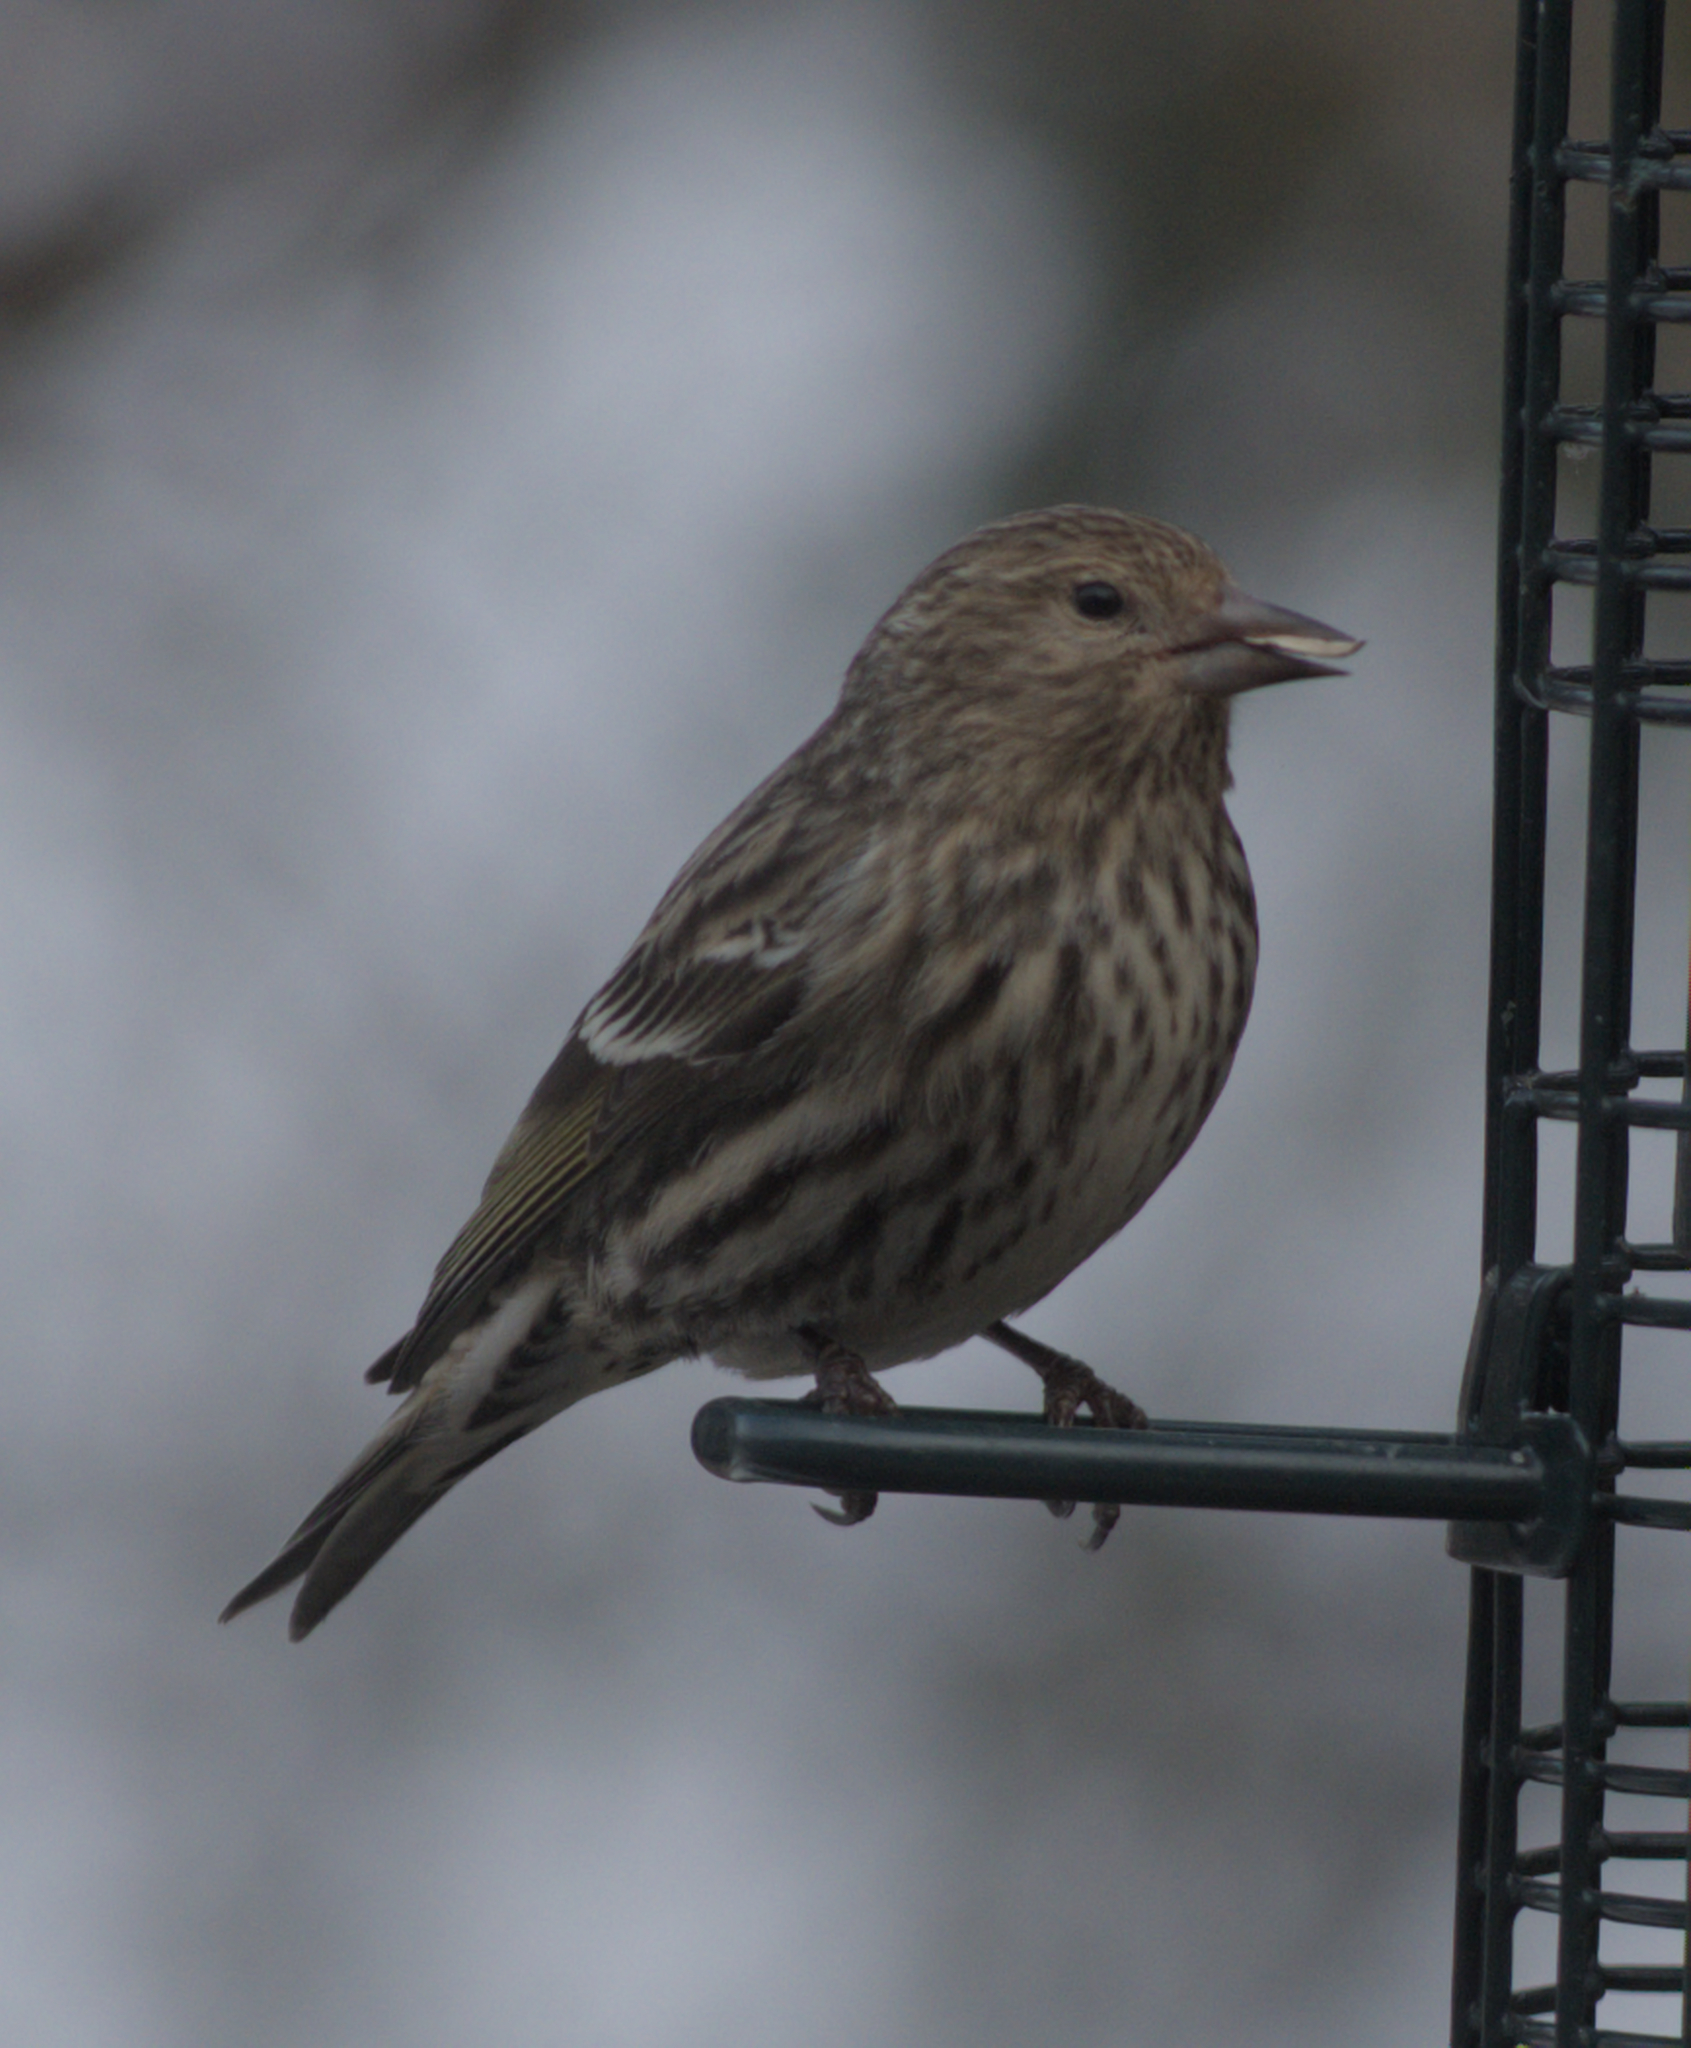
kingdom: Animalia
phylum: Chordata
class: Aves
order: Passeriformes
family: Fringillidae
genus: Spinus
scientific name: Spinus pinus
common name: Pine siskin
